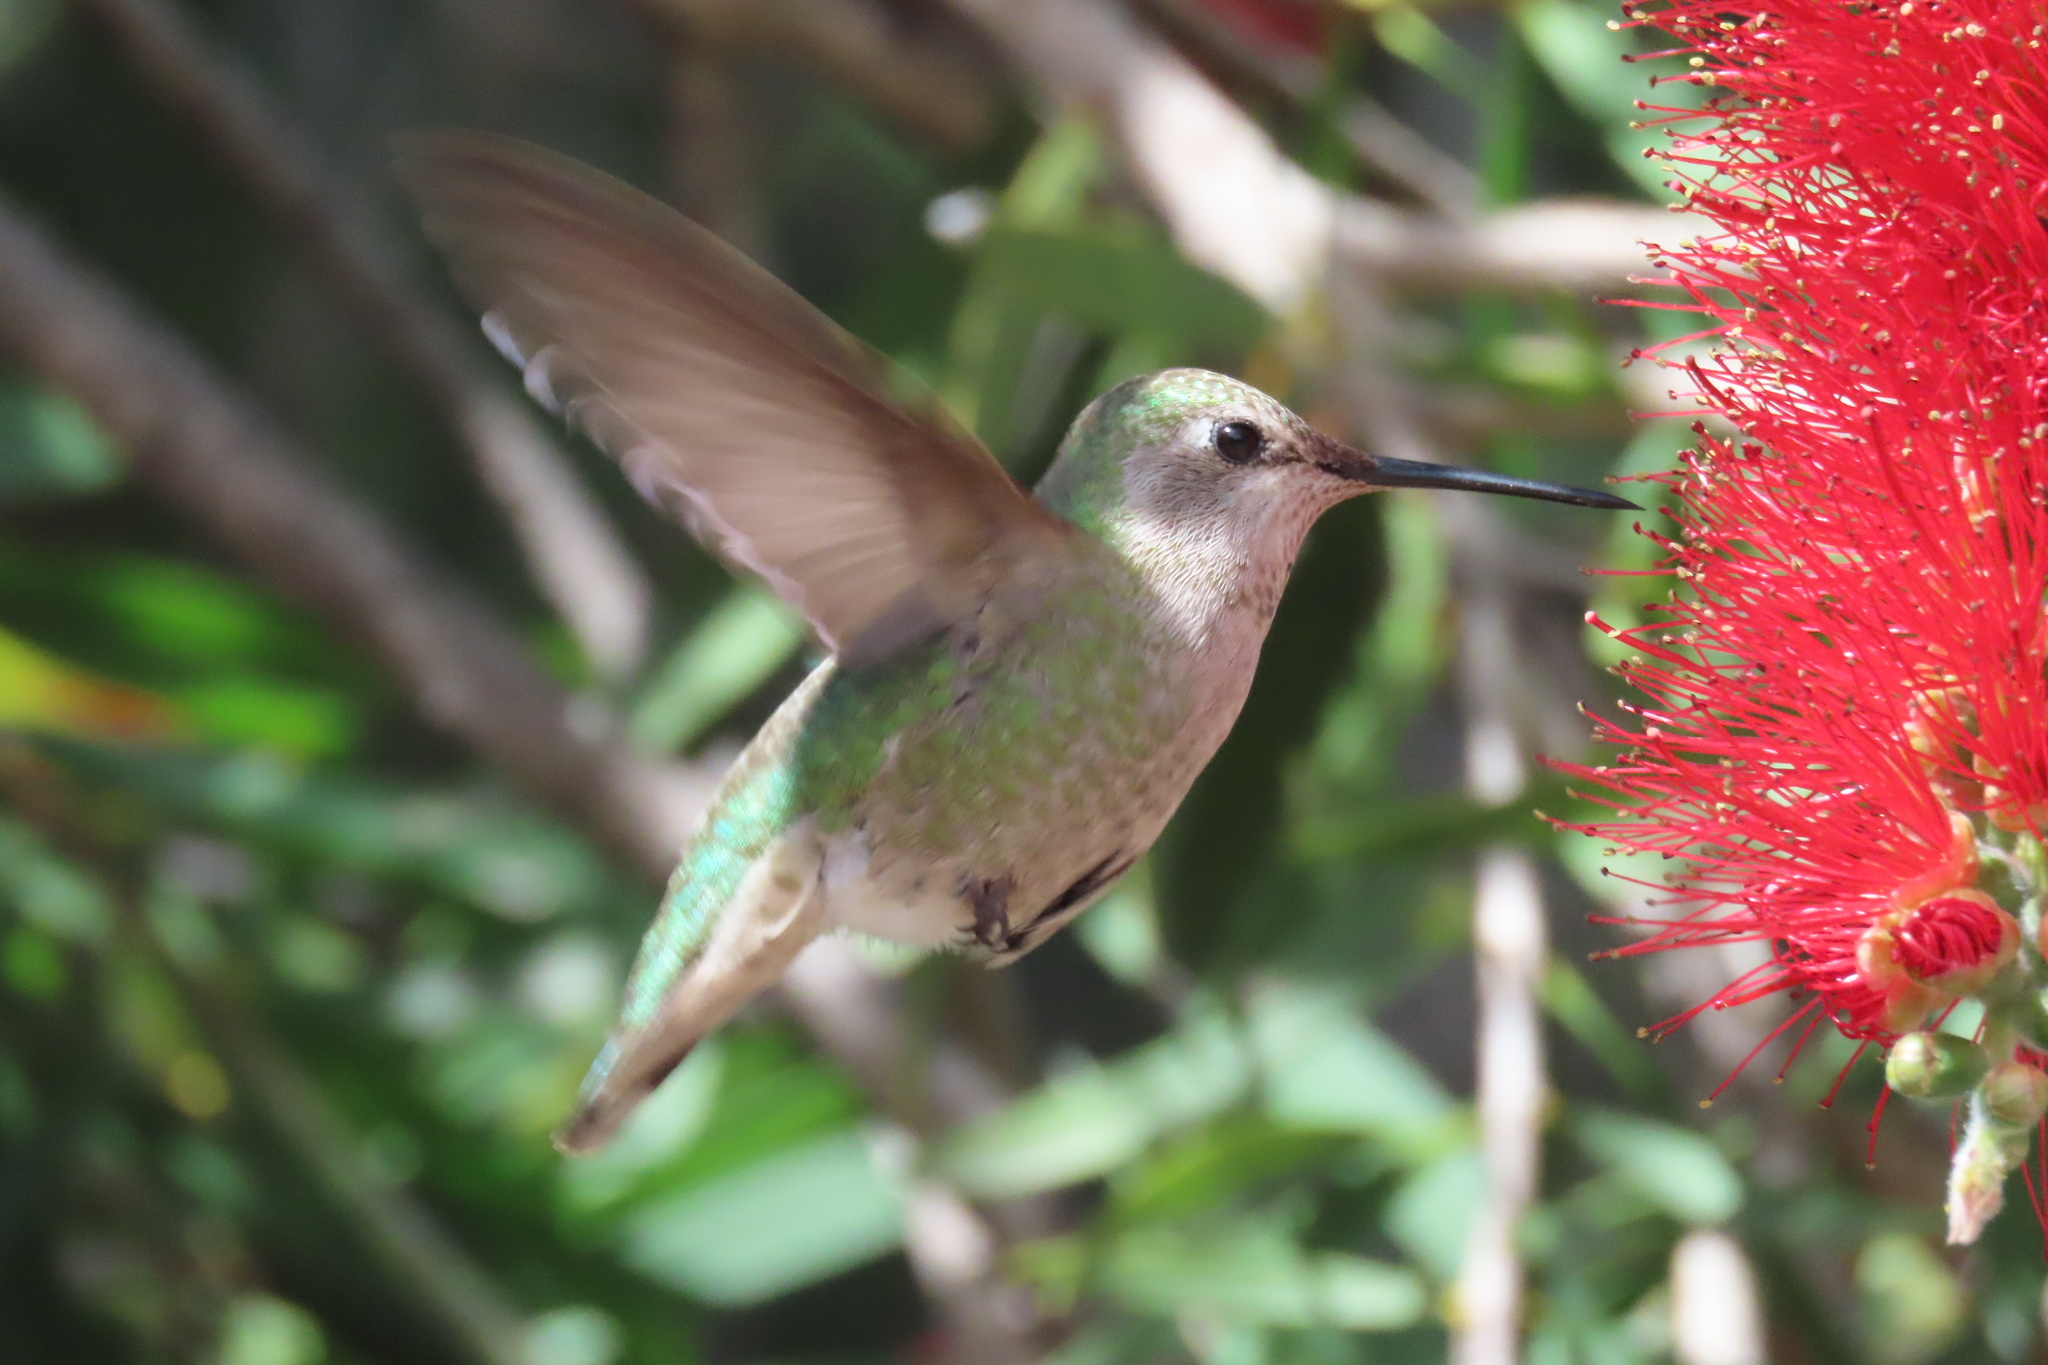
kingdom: Animalia
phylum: Chordata
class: Aves
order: Apodiformes
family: Trochilidae
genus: Calypte
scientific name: Calypte anna
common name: Anna's hummingbird
